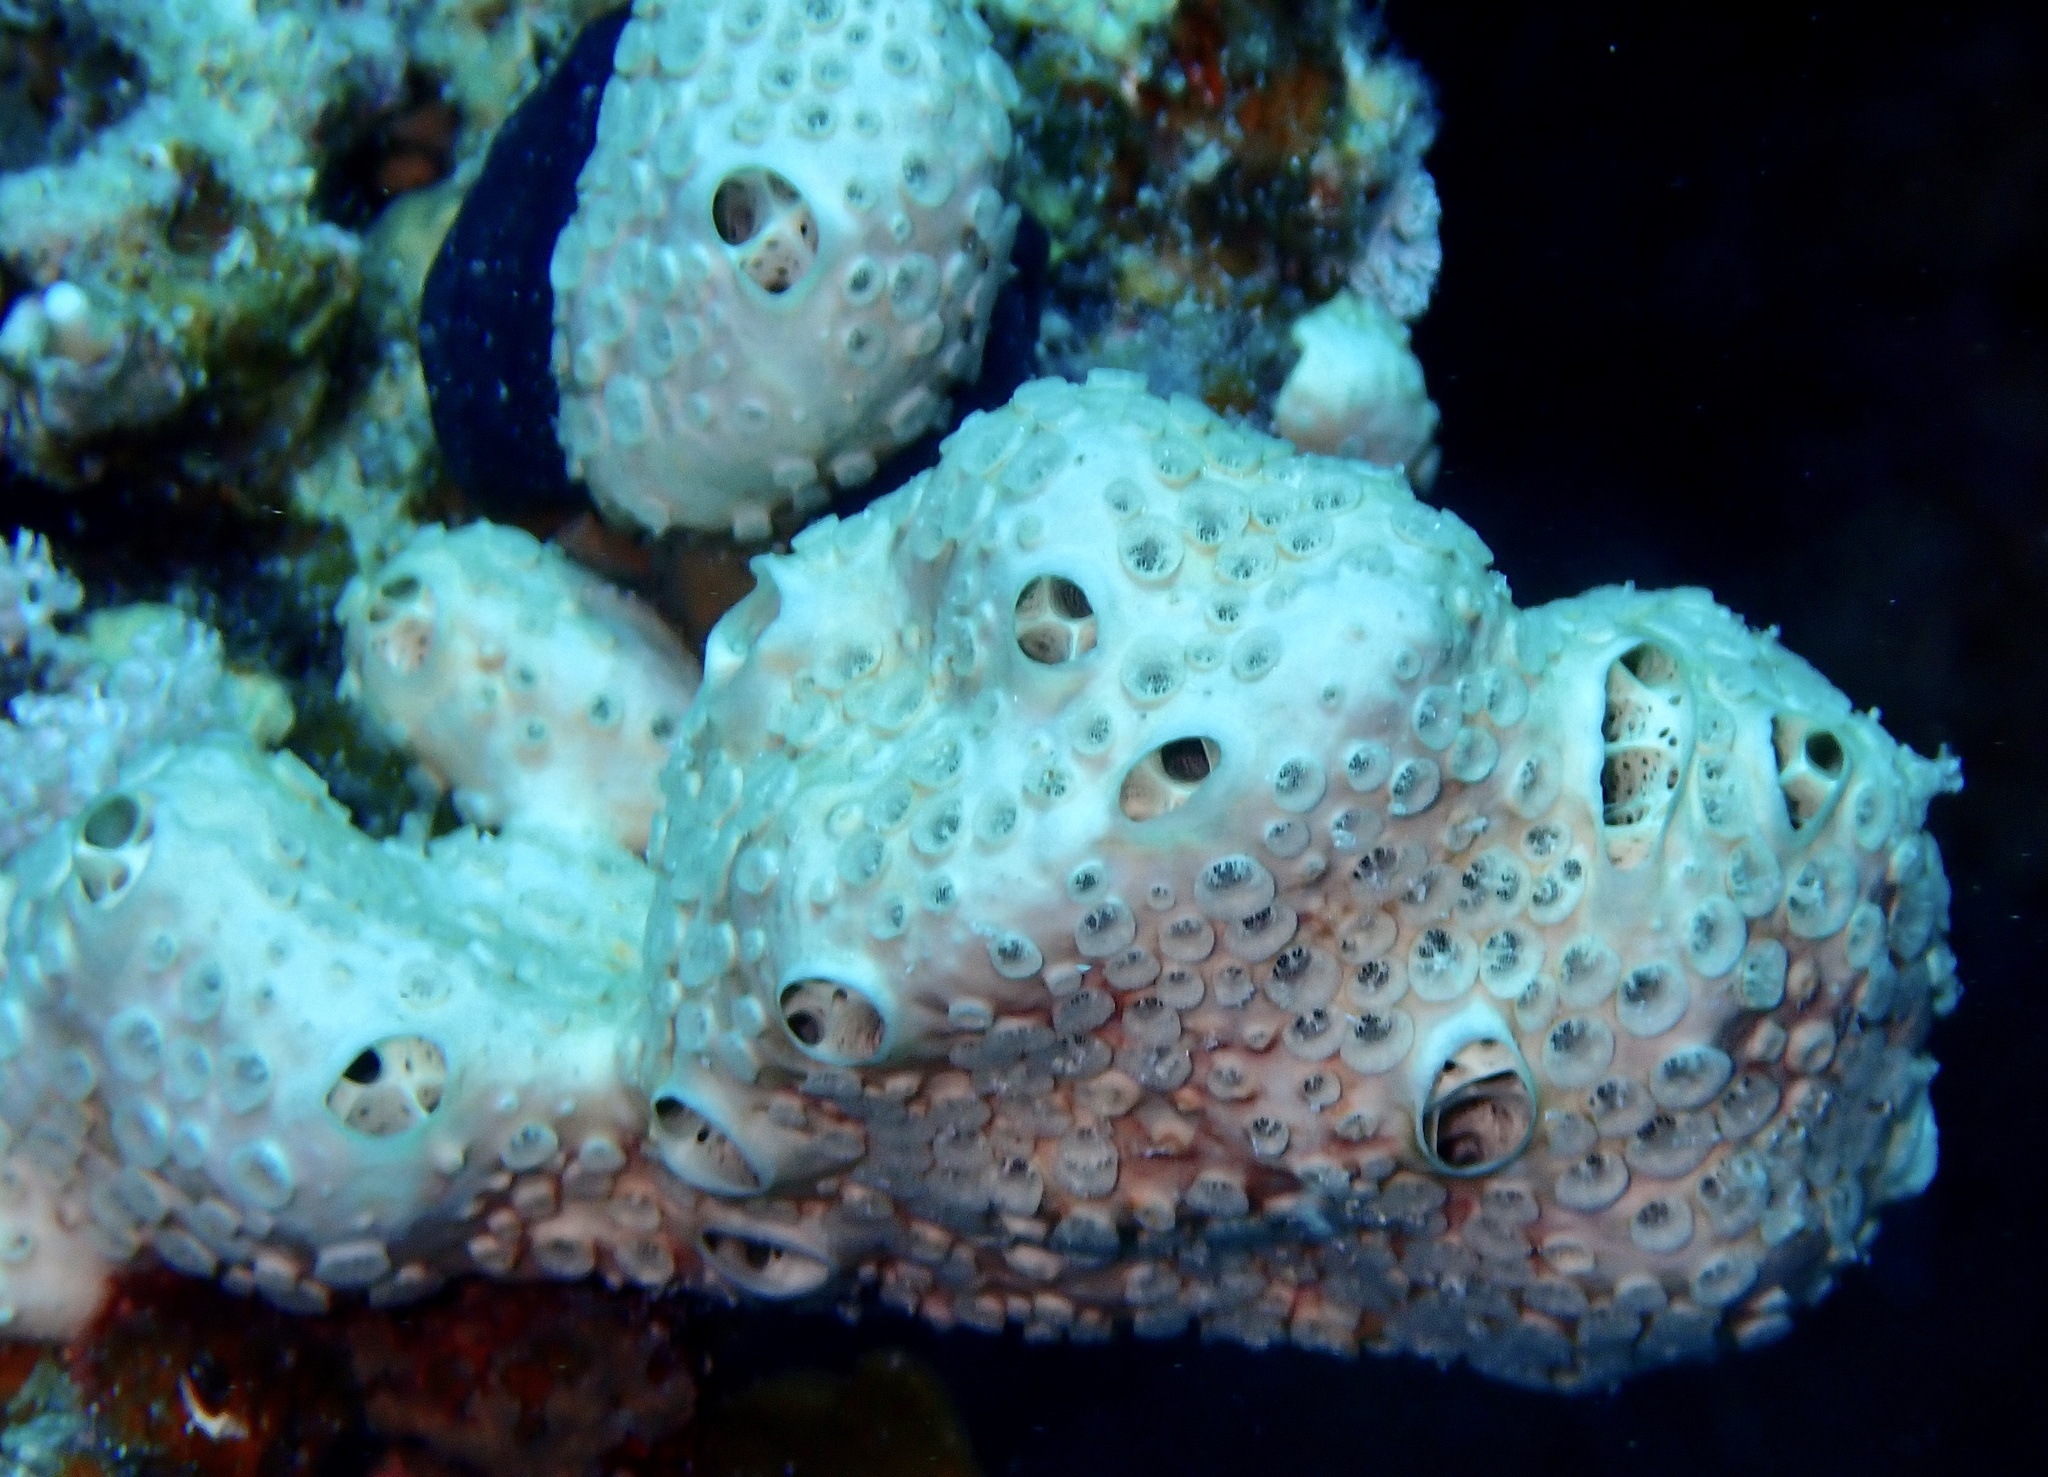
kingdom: Animalia
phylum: Porifera
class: Demospongiae
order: Poecilosclerida
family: Crellidae
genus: Crella
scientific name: Crella cyathophora
